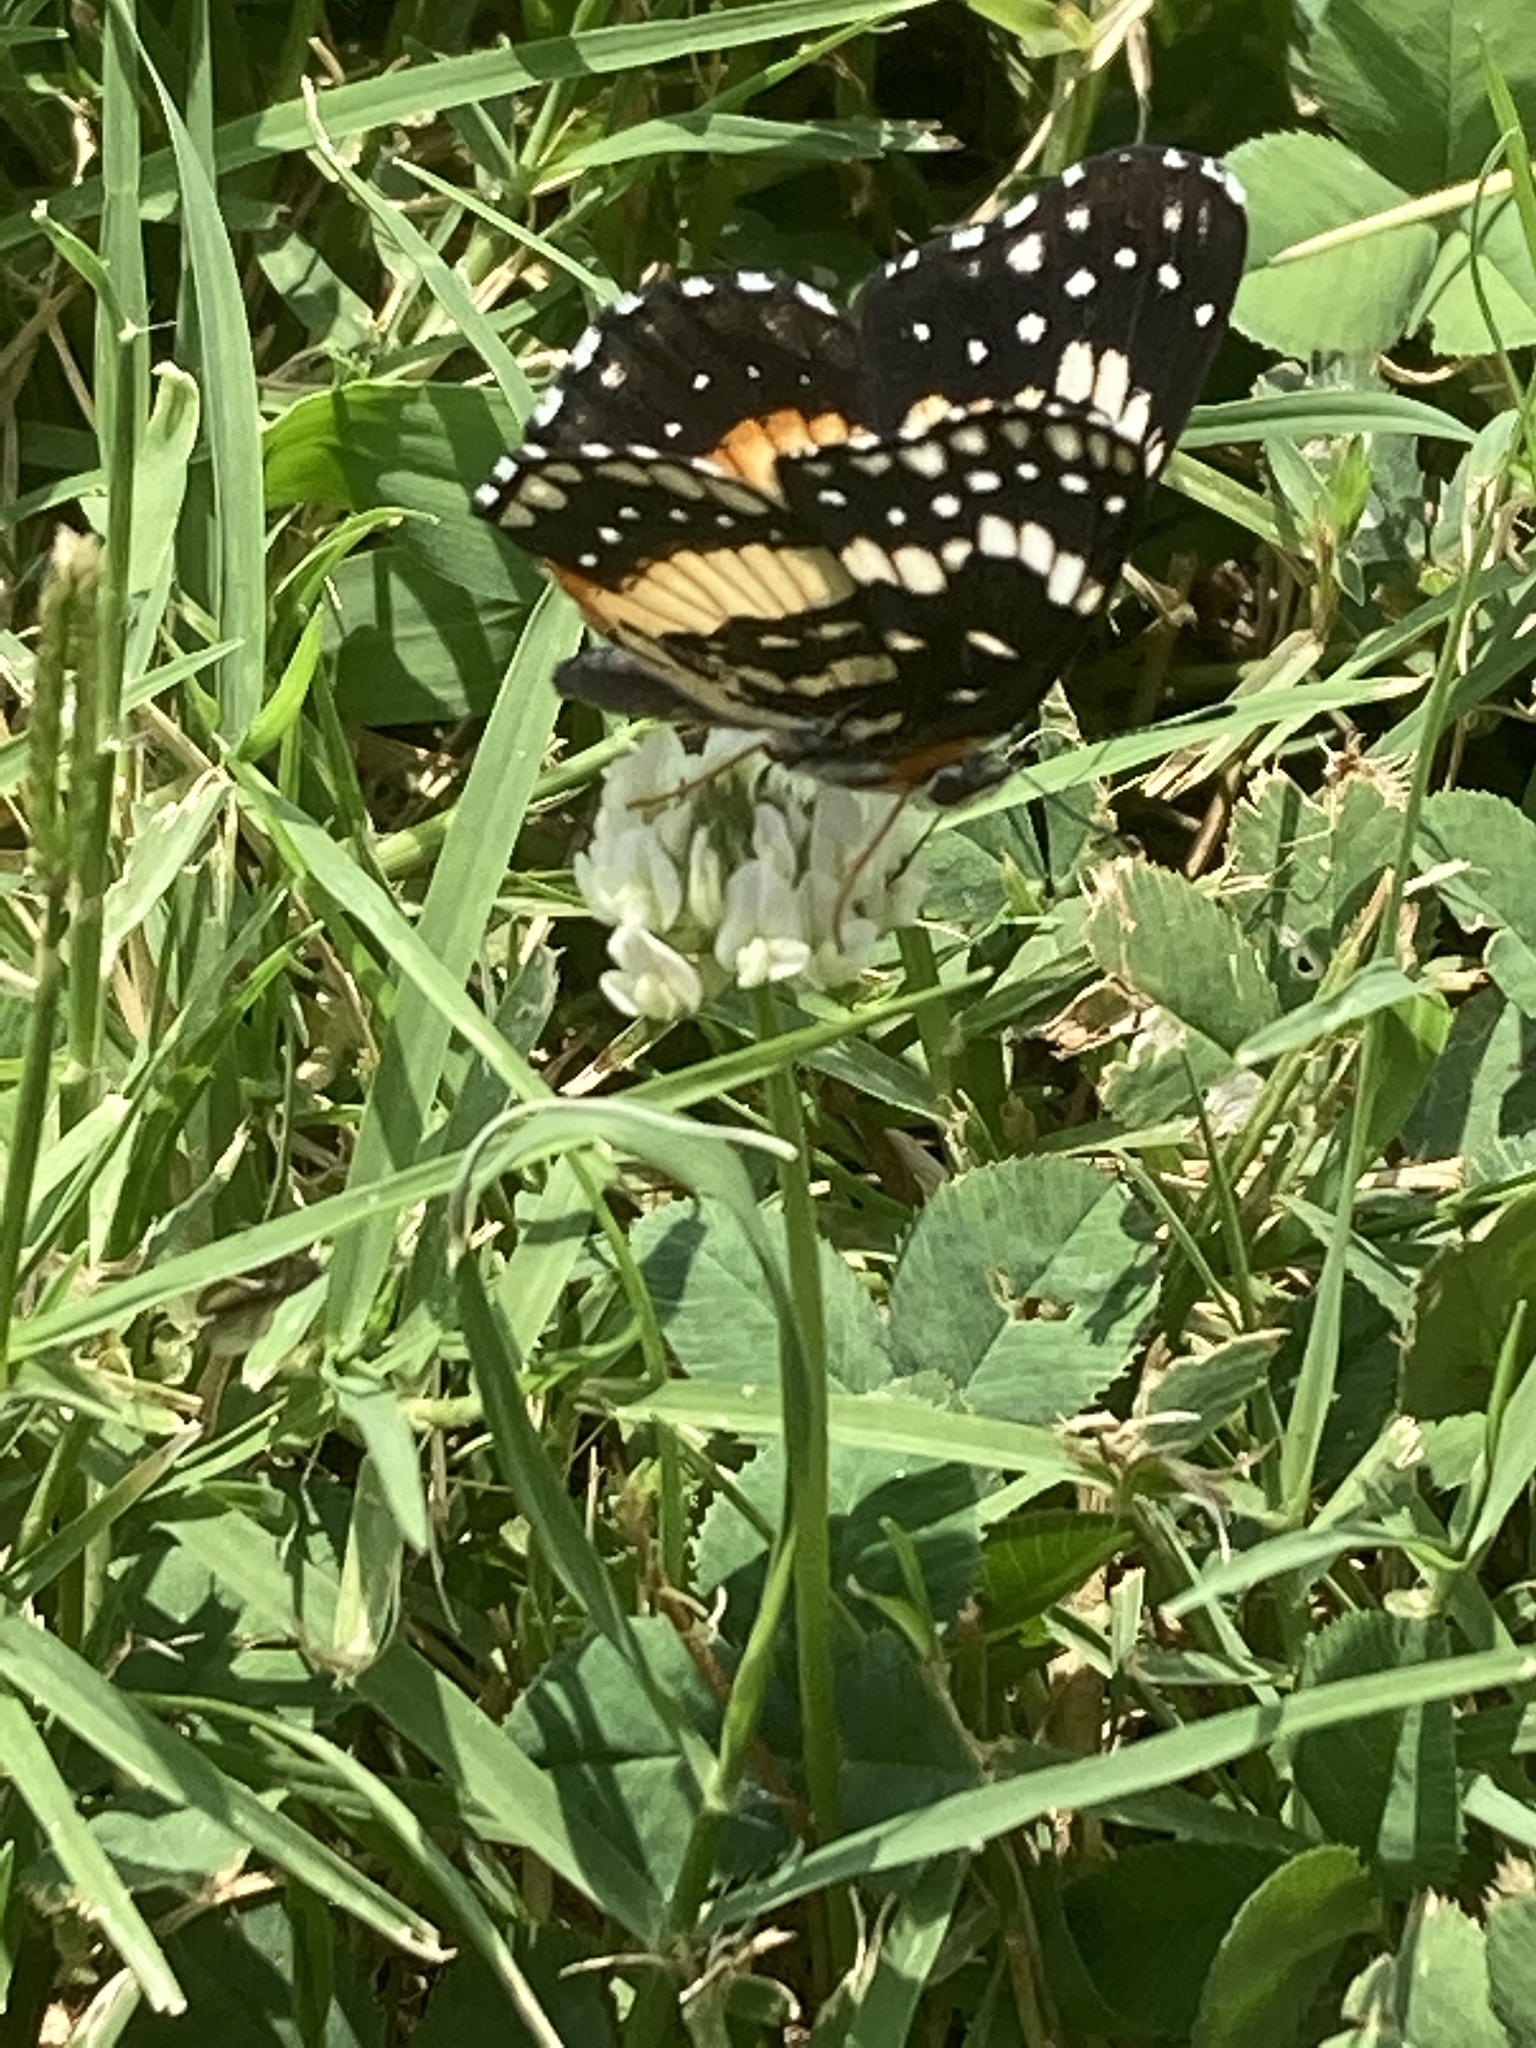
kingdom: Animalia
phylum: Arthropoda
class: Insecta
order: Lepidoptera
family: Nymphalidae
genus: Chlosyne
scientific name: Chlosyne lacinia
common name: Bordered patch
